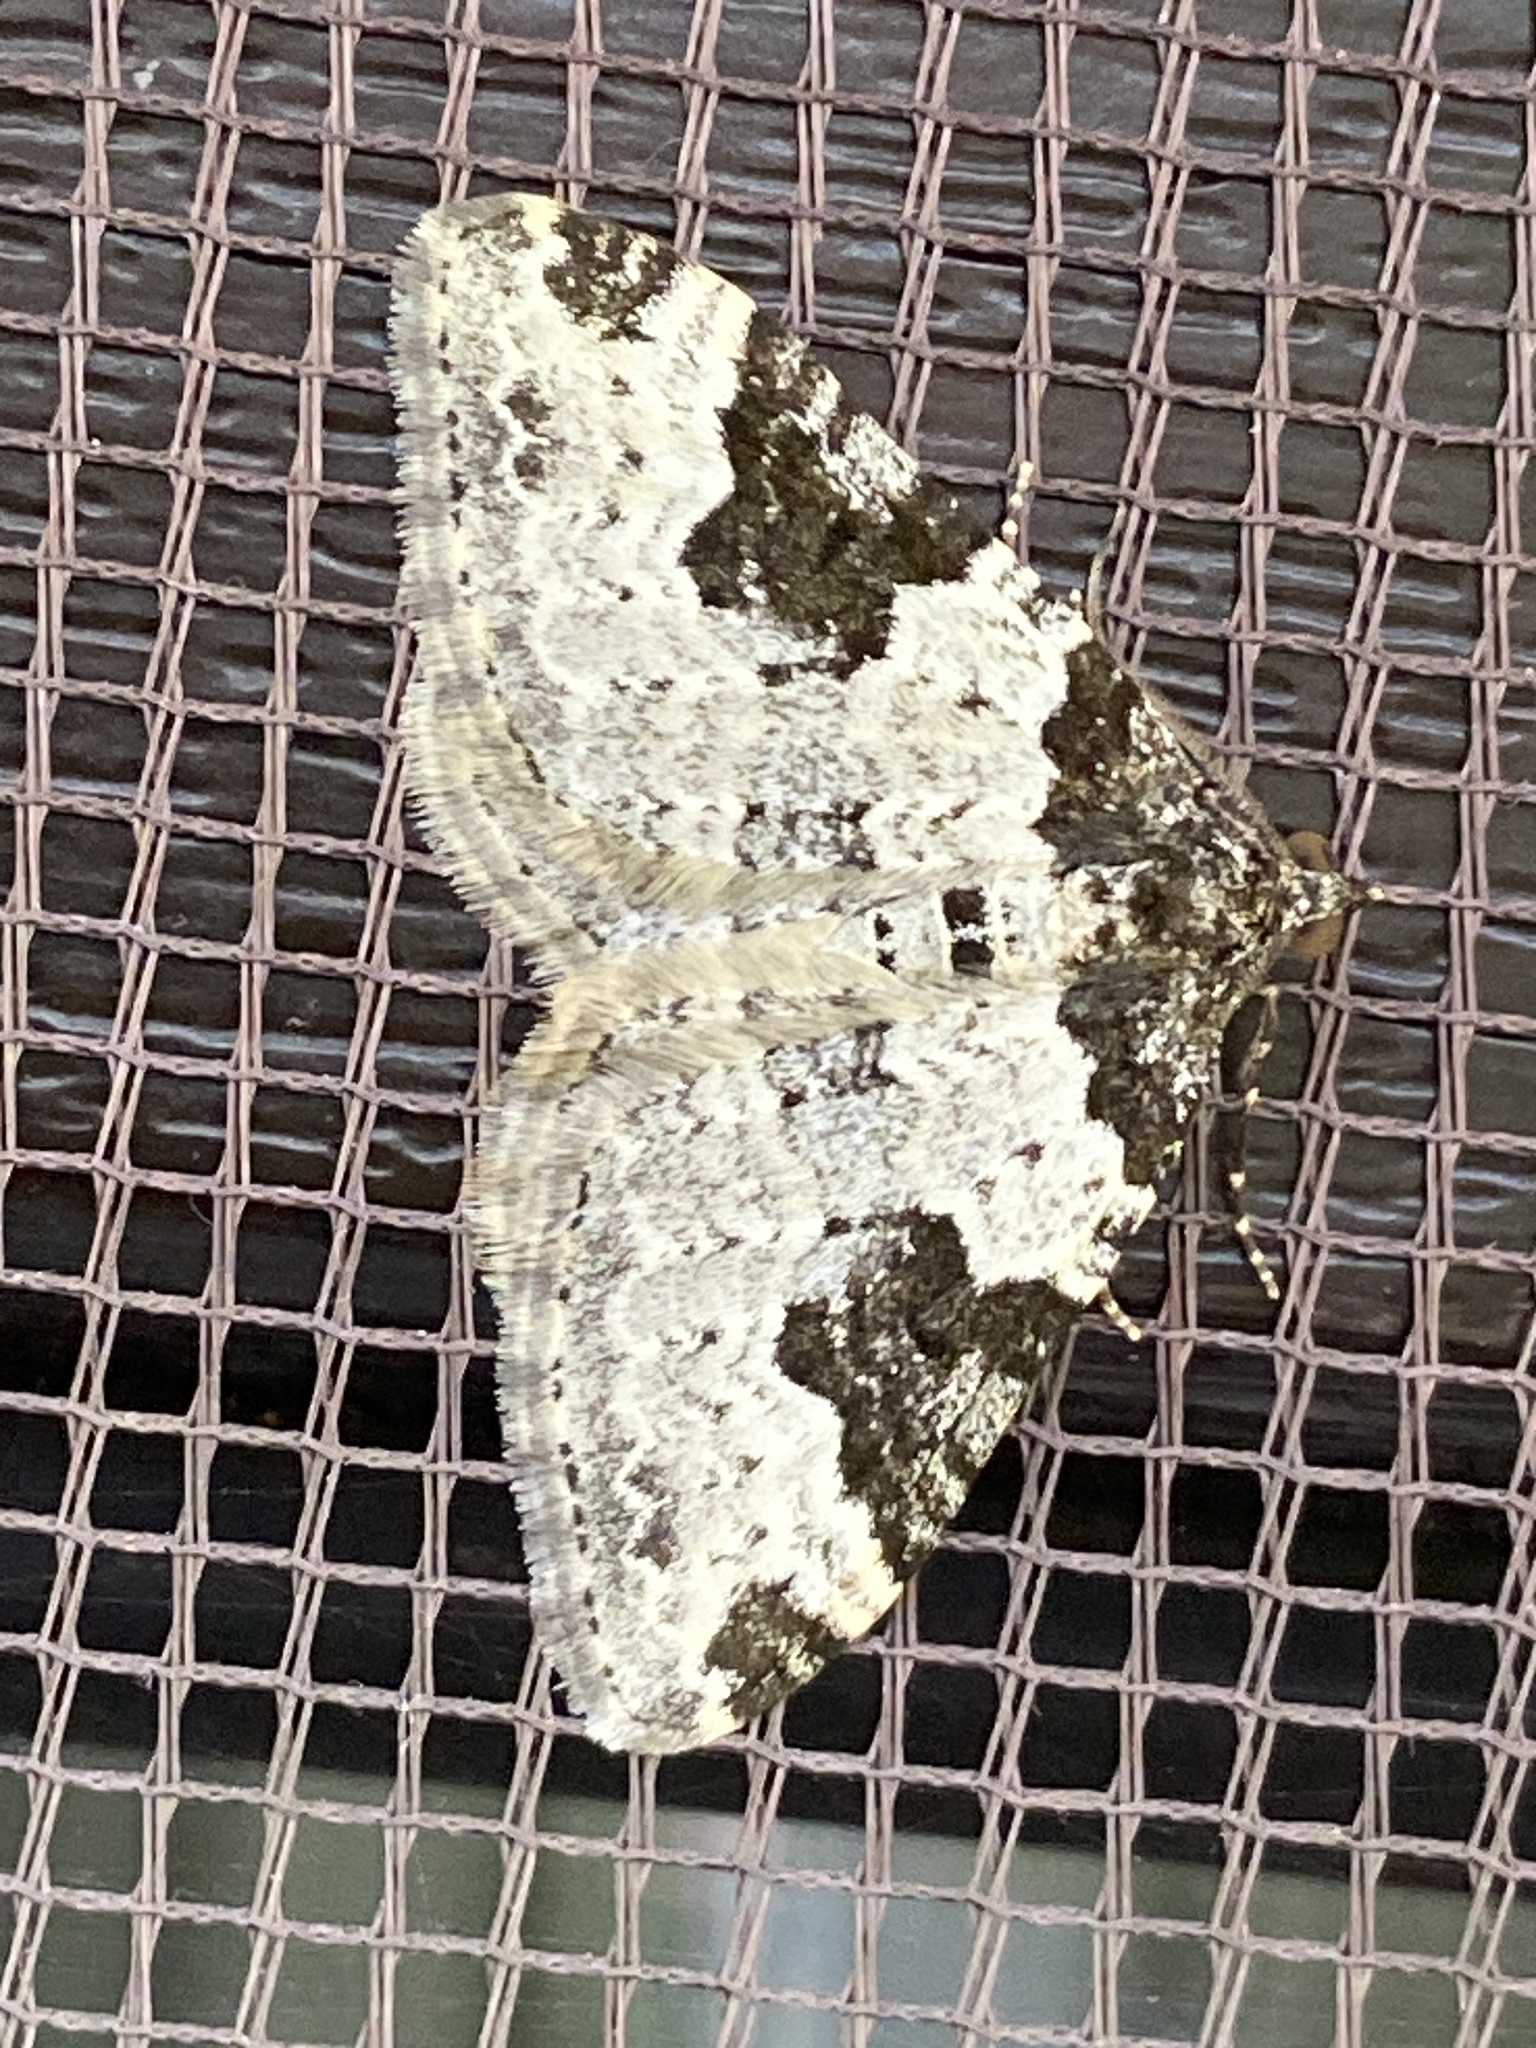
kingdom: Animalia
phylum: Arthropoda
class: Insecta
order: Lepidoptera
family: Geometridae
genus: Xanthorhoe
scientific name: Xanthorhoe fluctuata
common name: Garden carpet
